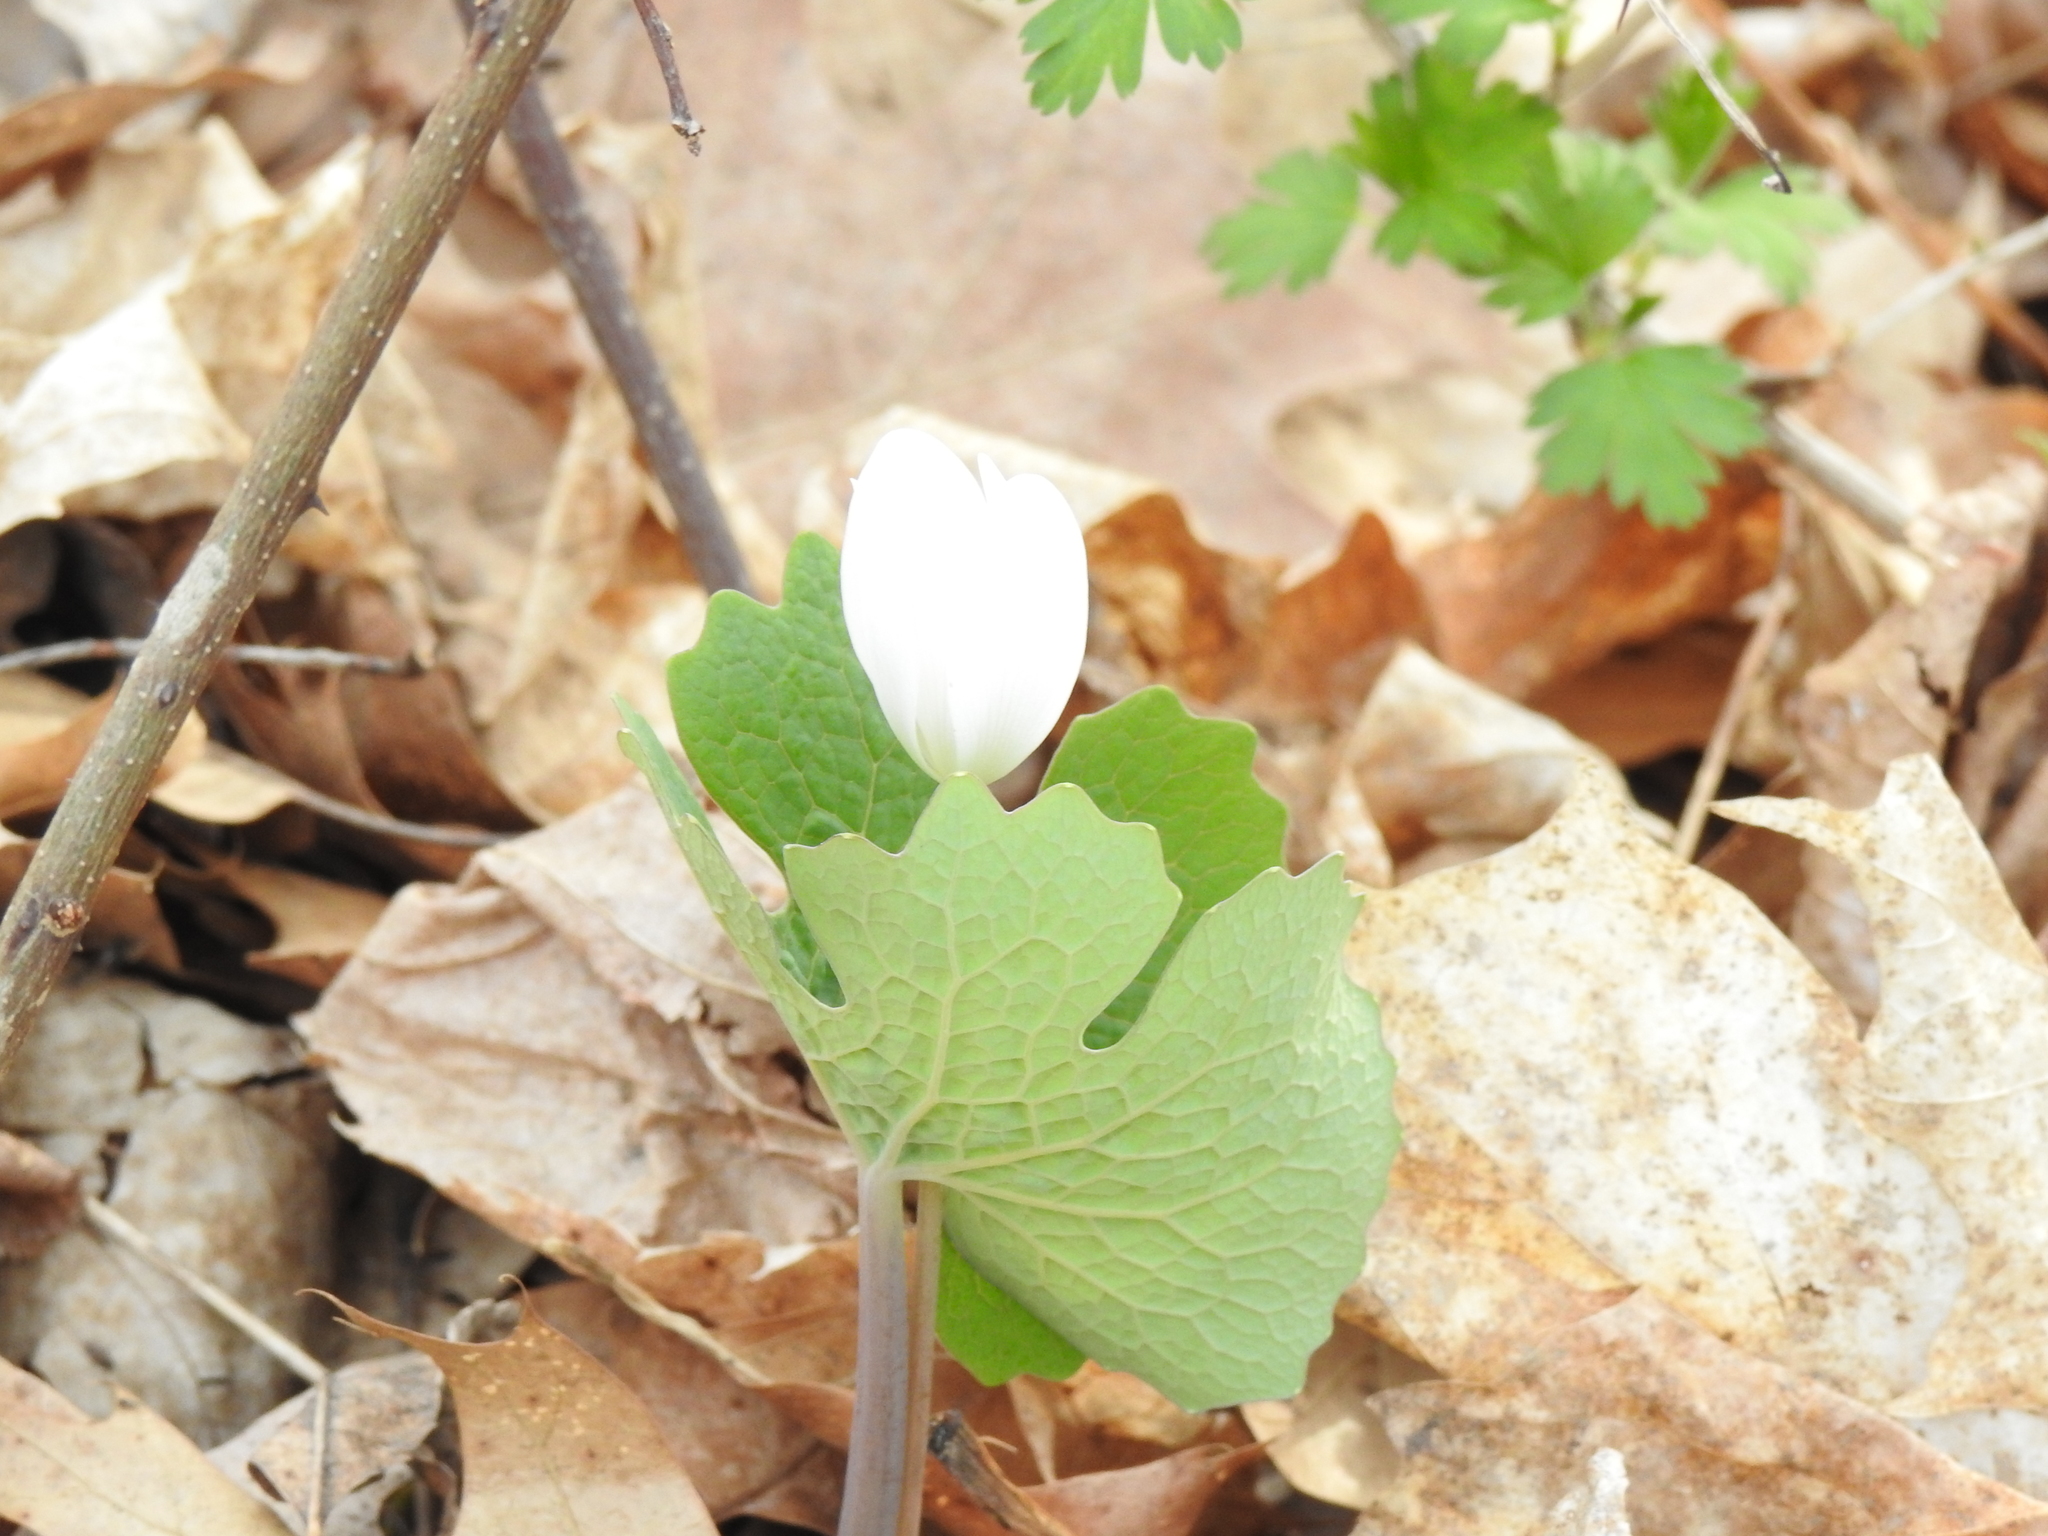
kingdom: Plantae
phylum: Tracheophyta
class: Magnoliopsida
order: Ranunculales
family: Papaveraceae
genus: Sanguinaria
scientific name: Sanguinaria canadensis
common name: Bloodroot
